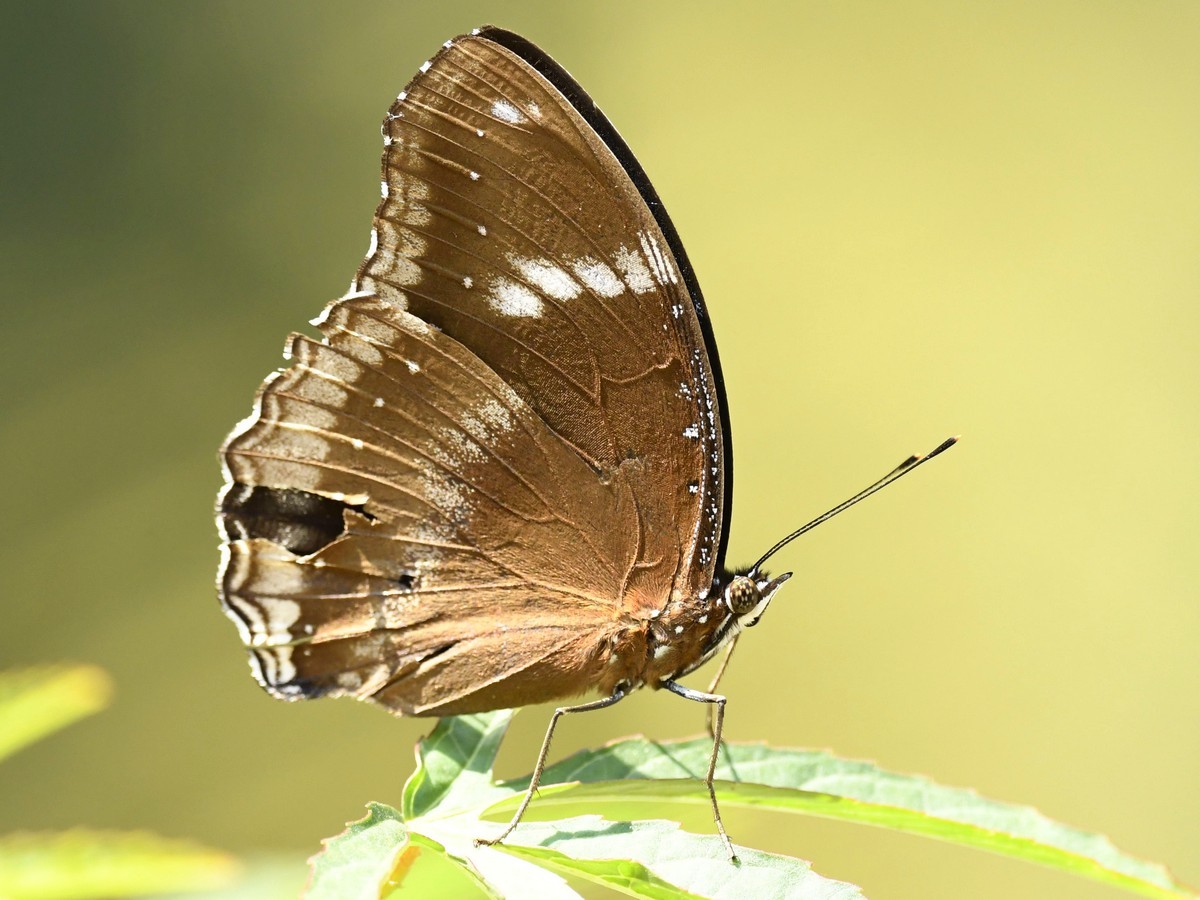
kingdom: Animalia
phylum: Arthropoda
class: Insecta
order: Lepidoptera
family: Nymphalidae
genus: Hypolimnas
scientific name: Hypolimnas bolina
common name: Great eggfly
